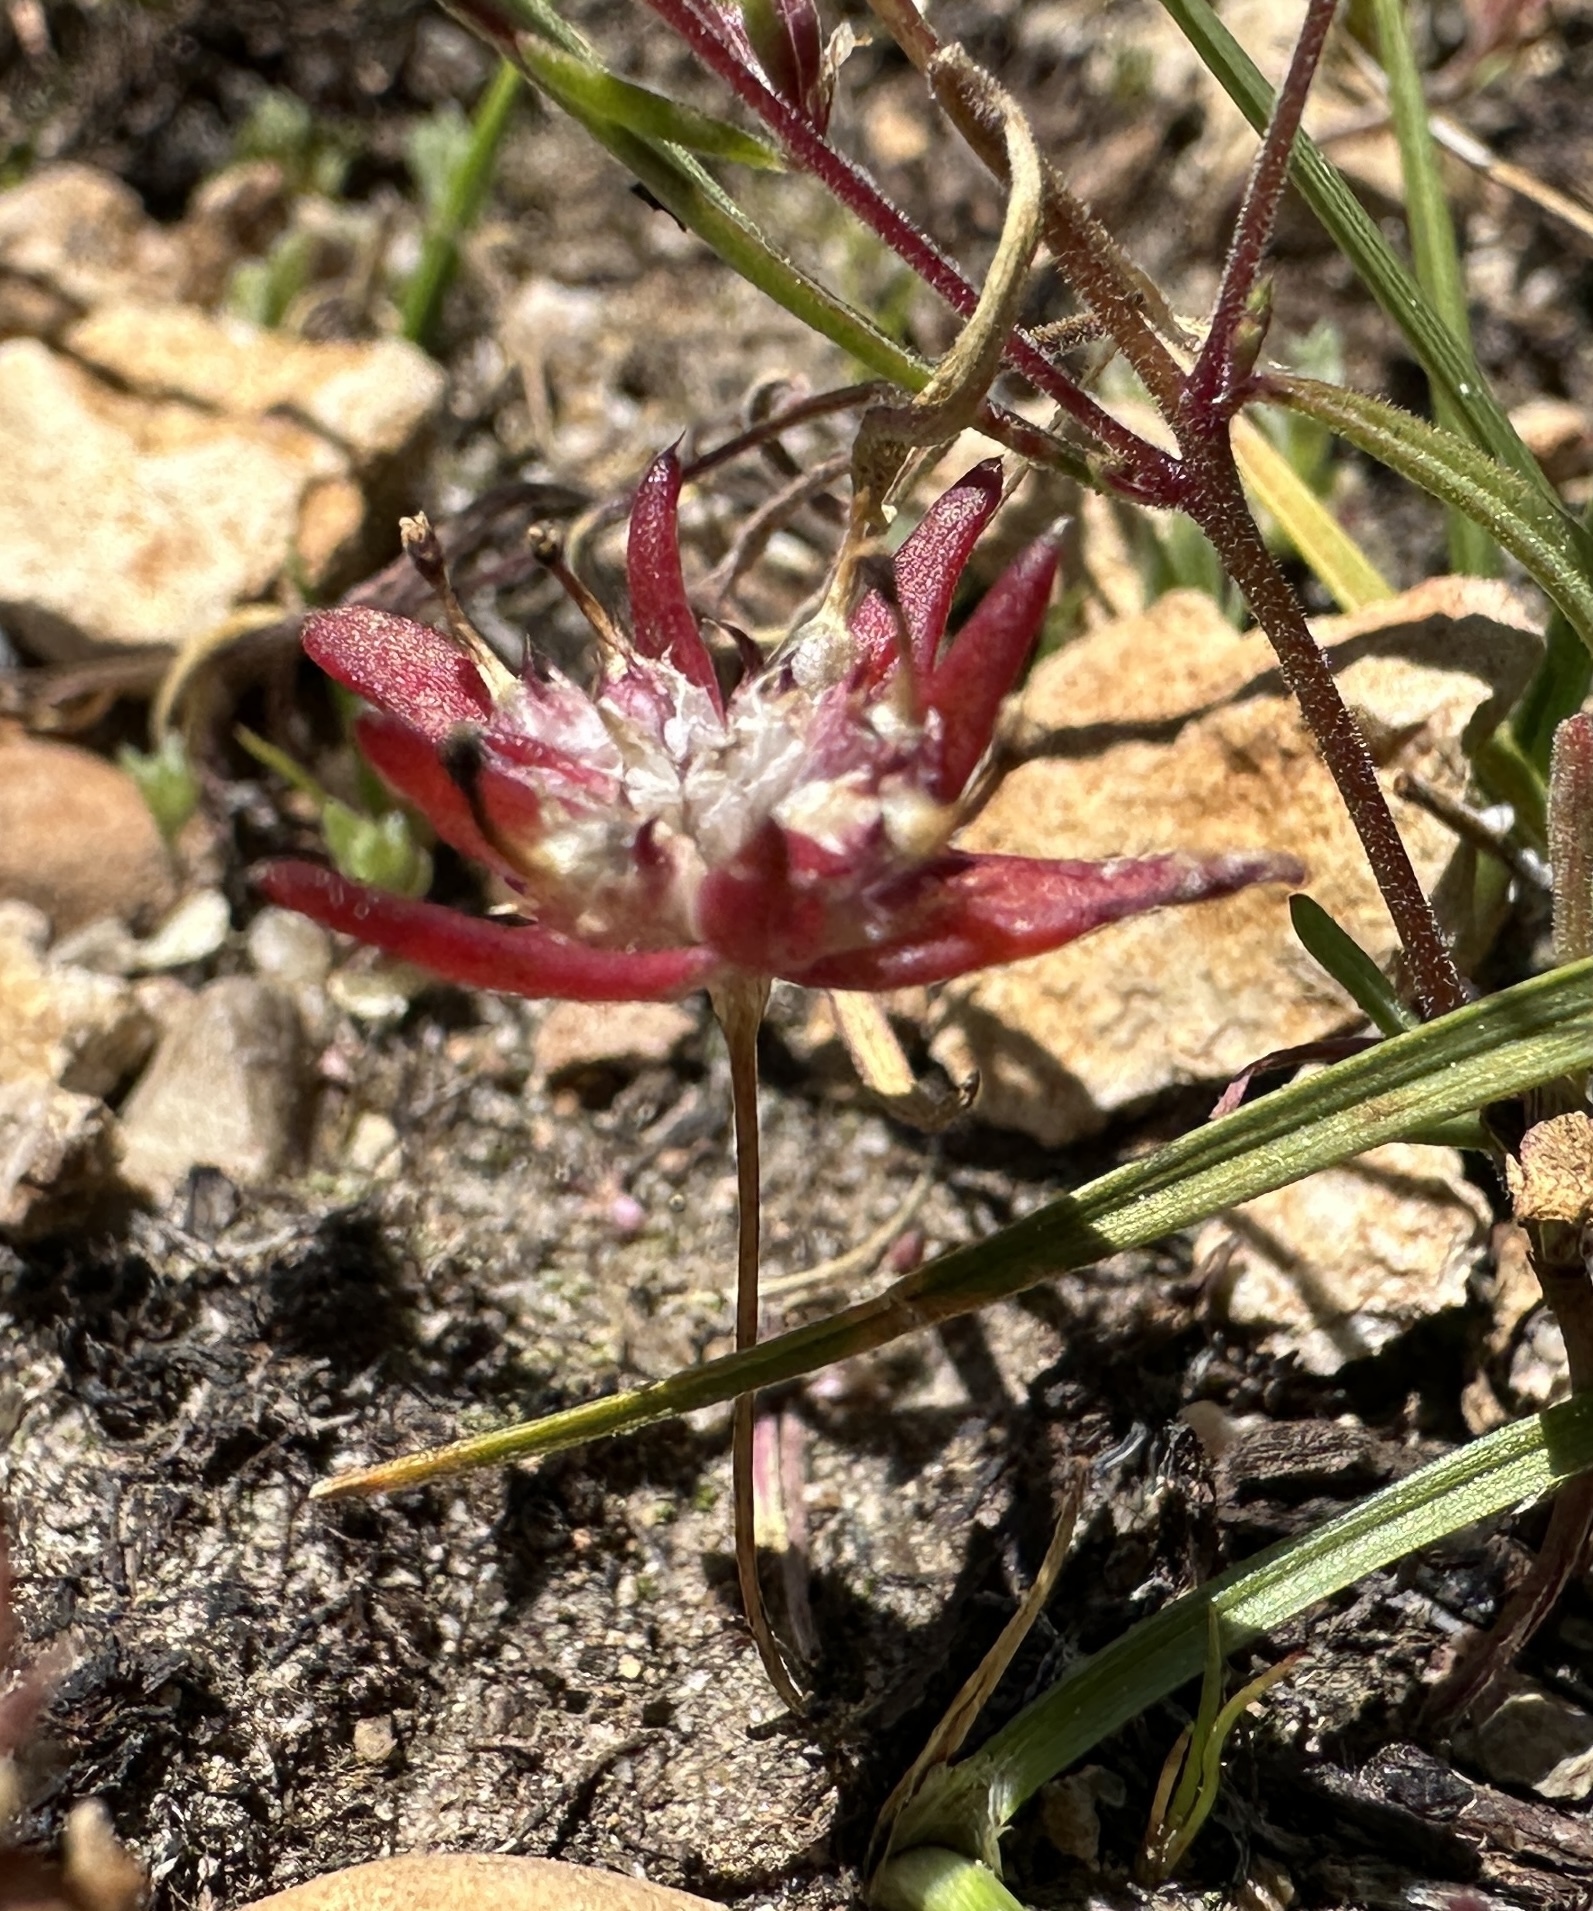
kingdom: Plantae
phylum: Tracheophyta
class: Magnoliopsida
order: Ericales
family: Polemoniaceae
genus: Gymnosteris
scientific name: Gymnosteris parvula
